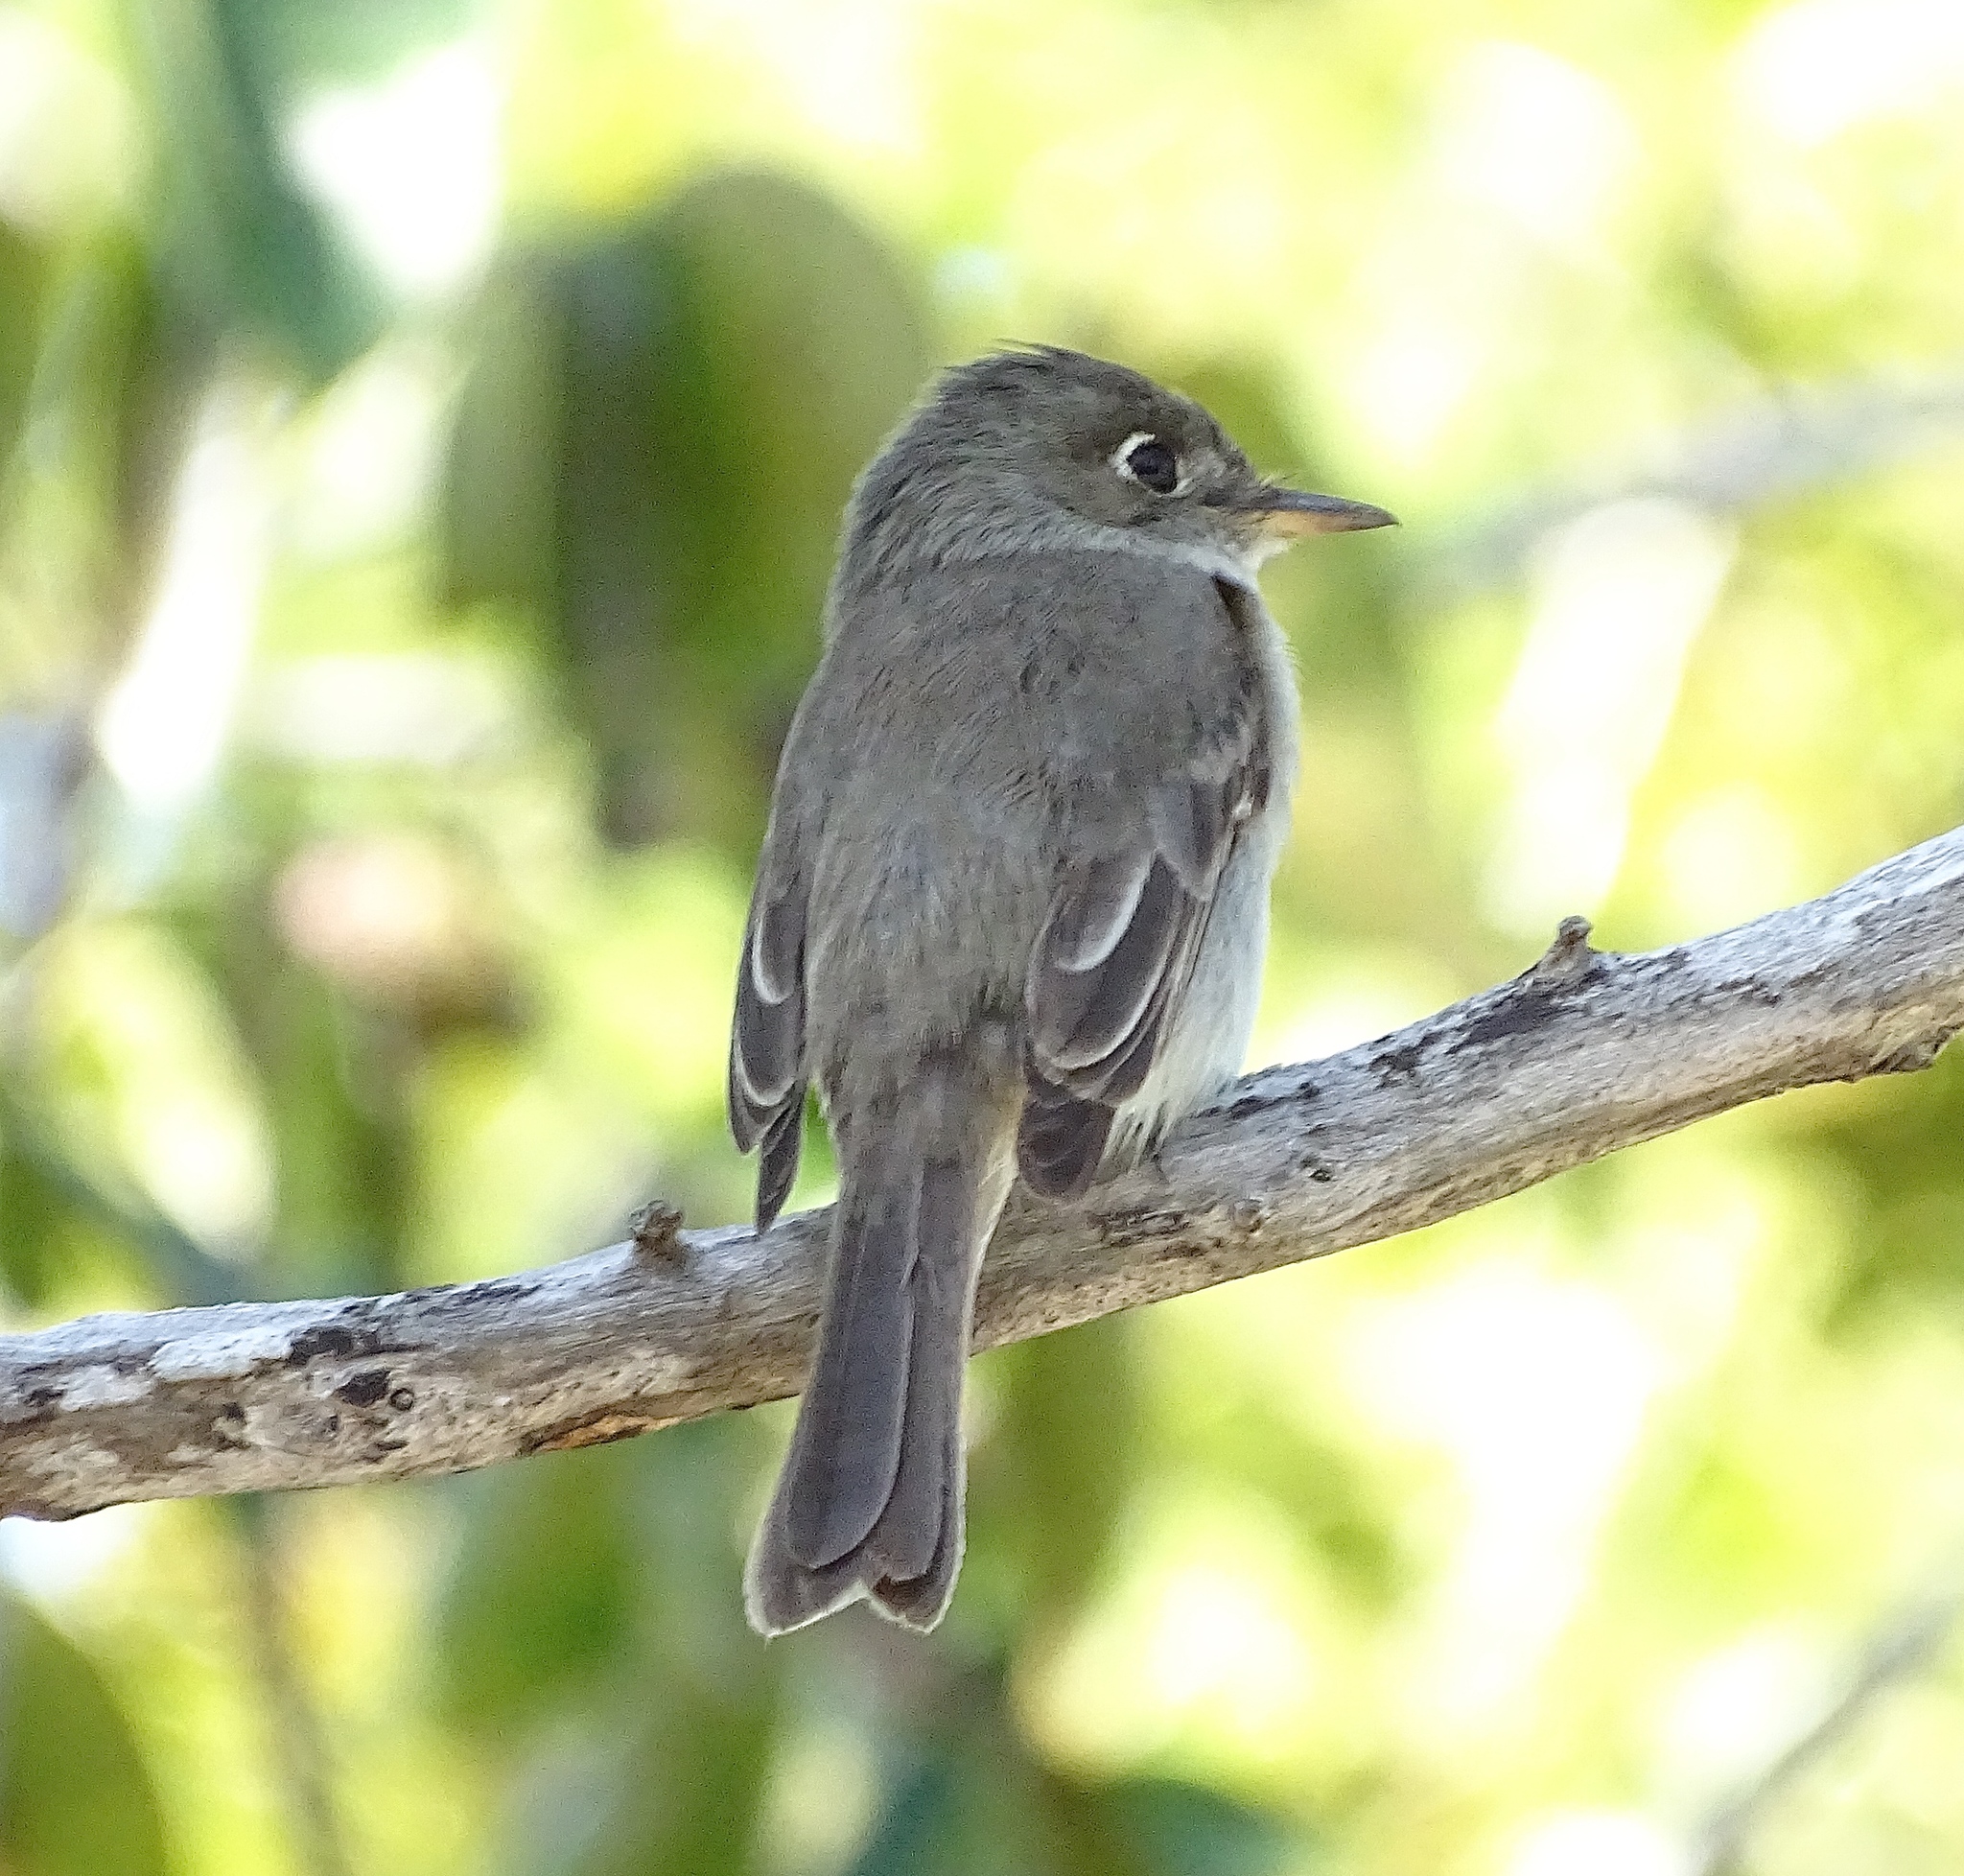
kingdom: Animalia
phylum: Chordata
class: Aves
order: Passeriformes
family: Tyrannidae
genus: Contopus
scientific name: Contopus caribaeus
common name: Cuban pewee
